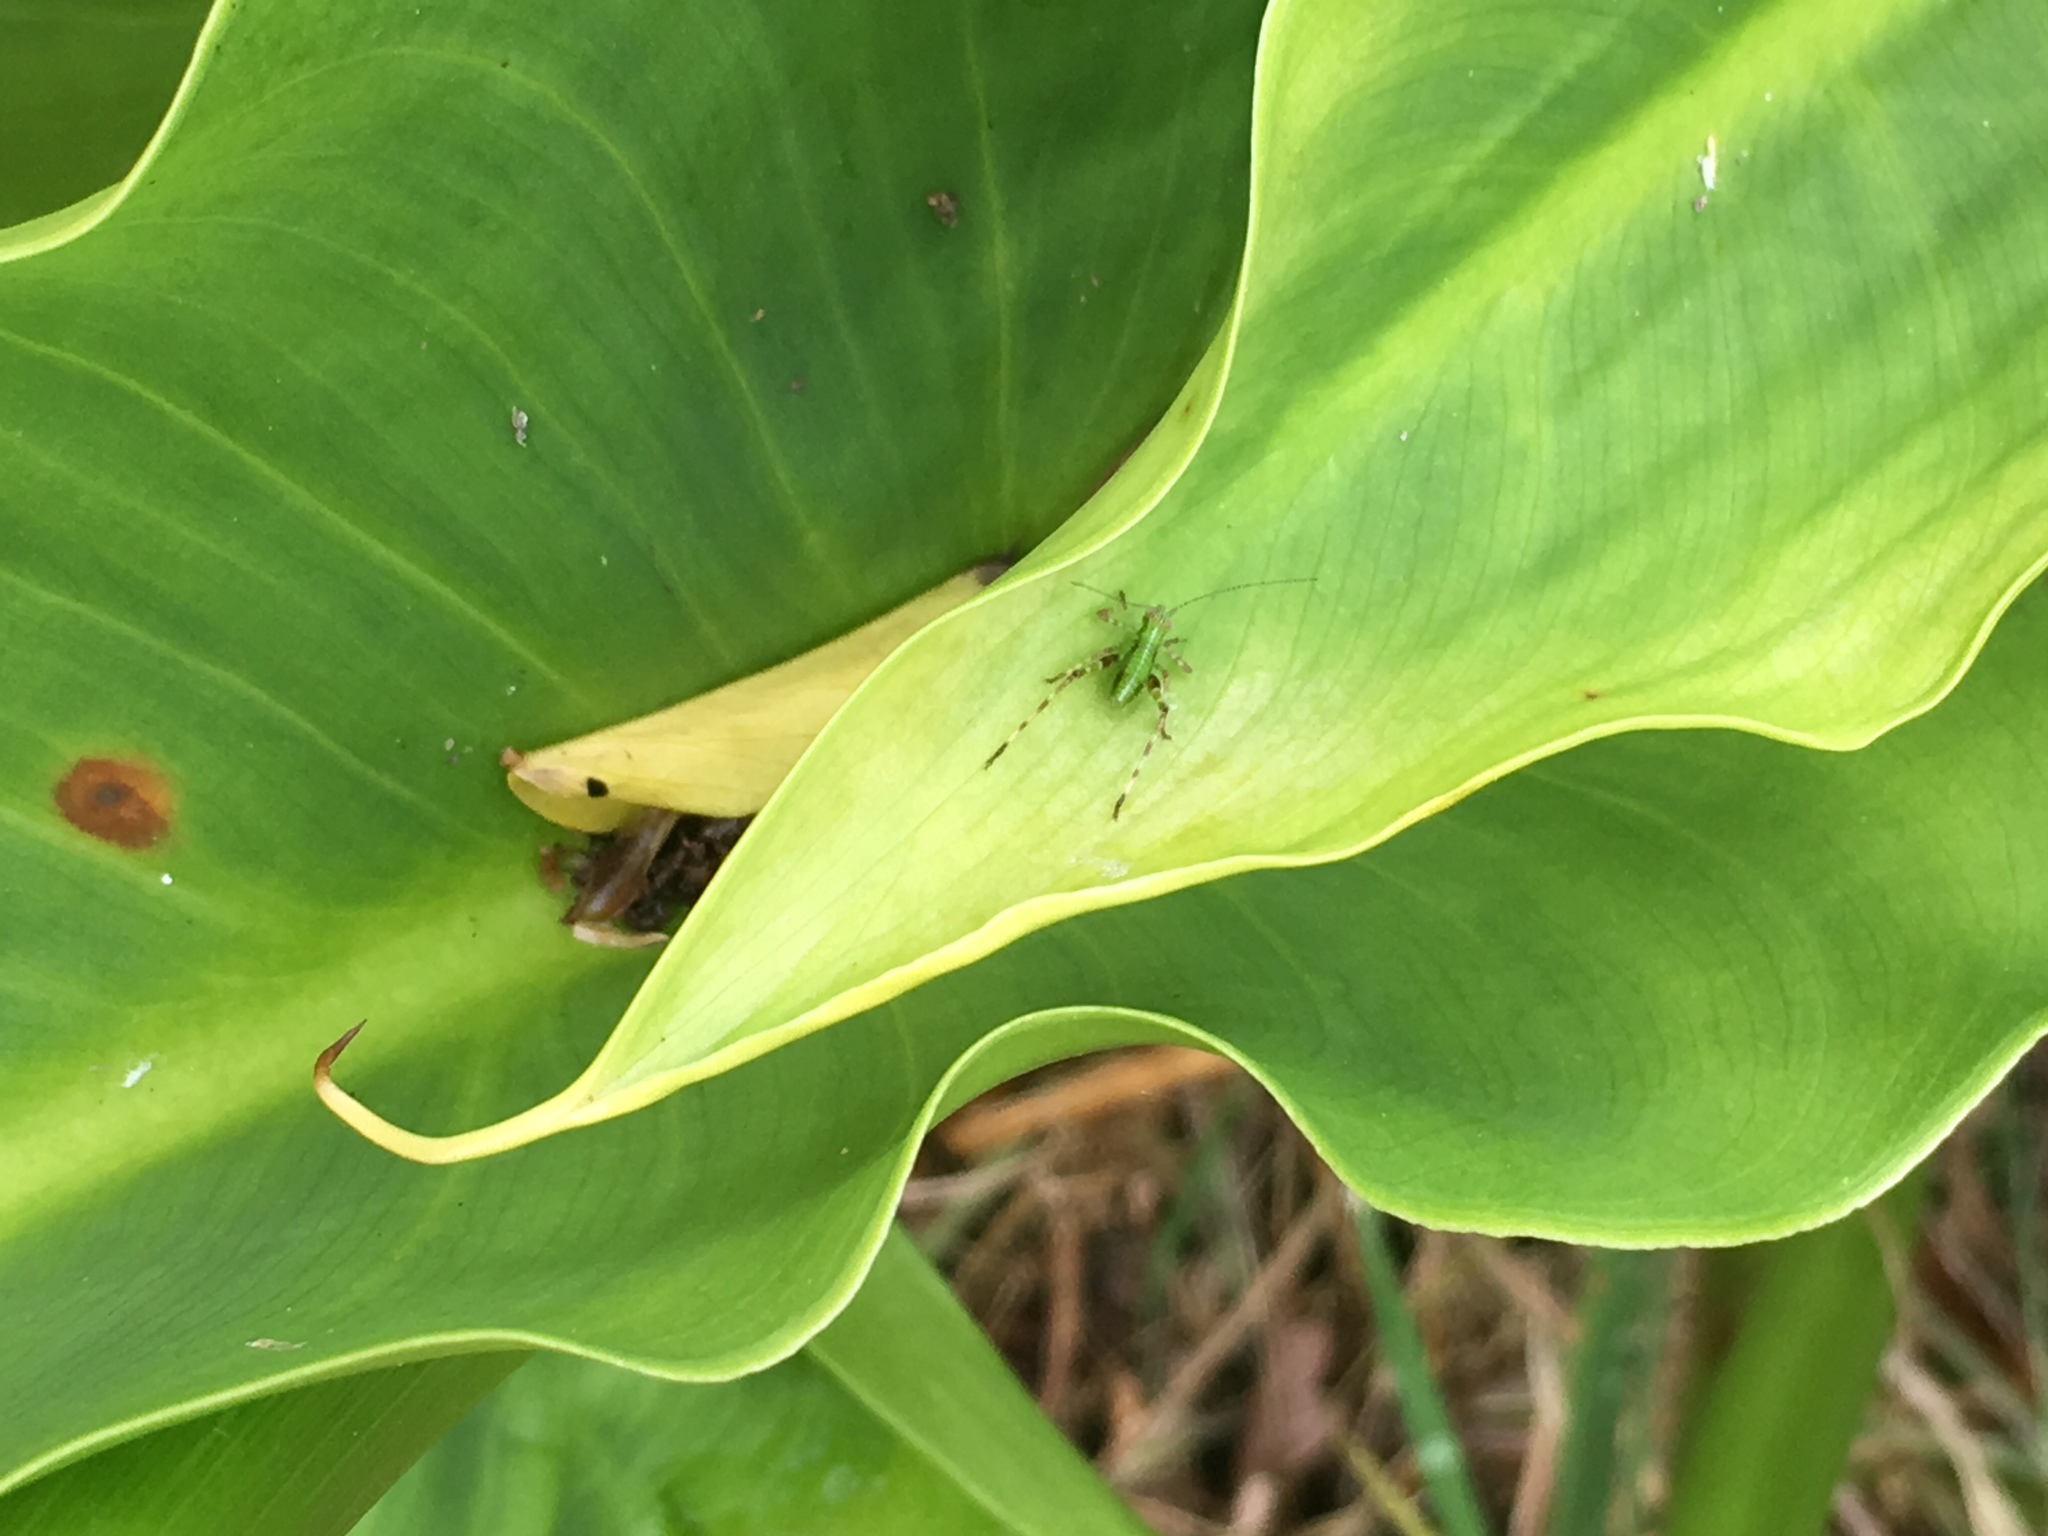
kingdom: Animalia
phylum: Arthropoda
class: Insecta
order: Orthoptera
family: Tettigoniidae
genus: Caedicia
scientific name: Caedicia simplex
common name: Common garden katydid
